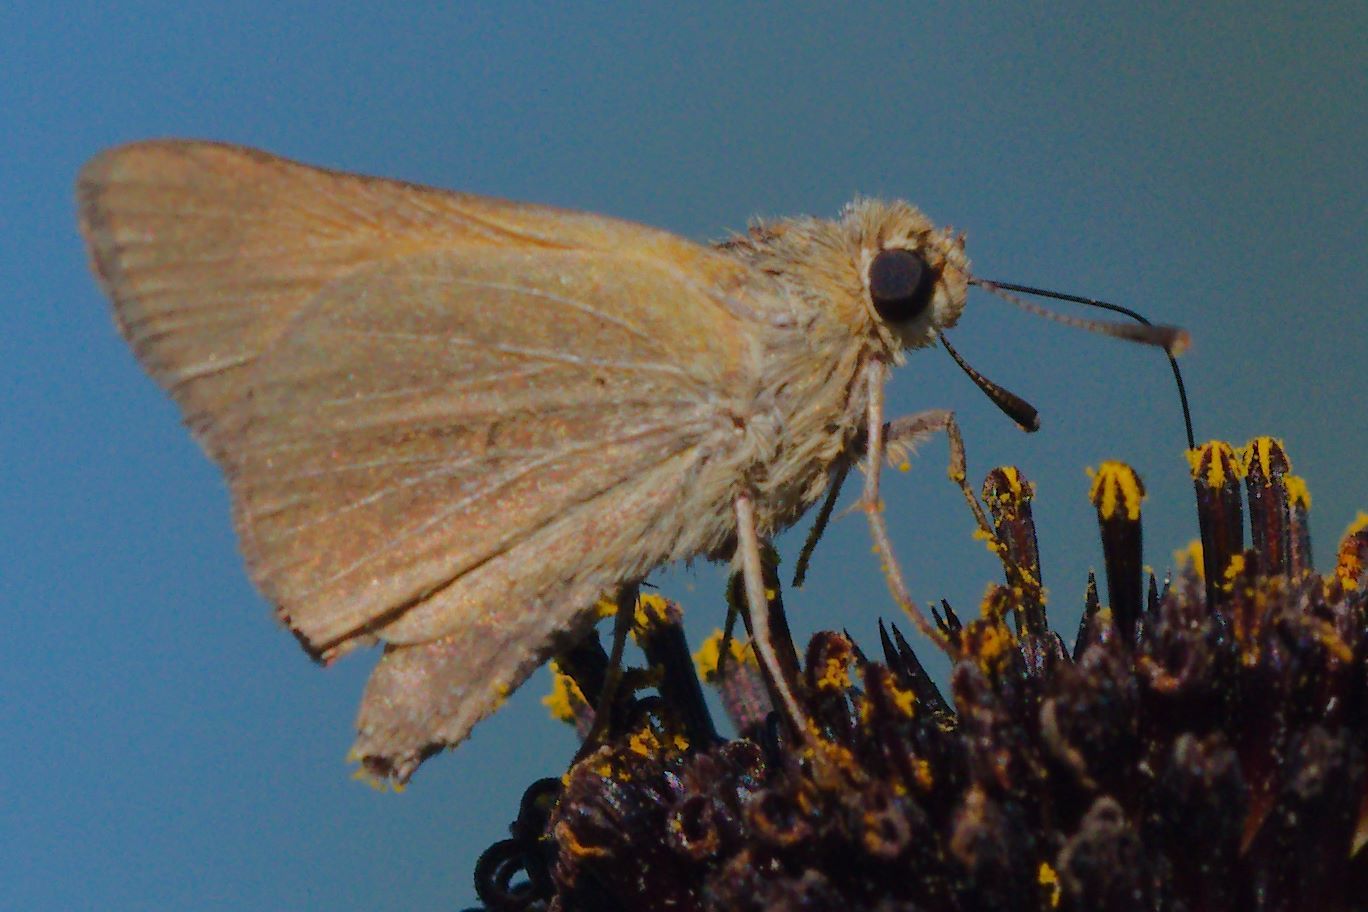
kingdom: Animalia
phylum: Arthropoda
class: Insecta
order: Lepidoptera
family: Hesperiidae
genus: Atrytone
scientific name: Atrytone arogos
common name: Arogos skipper
